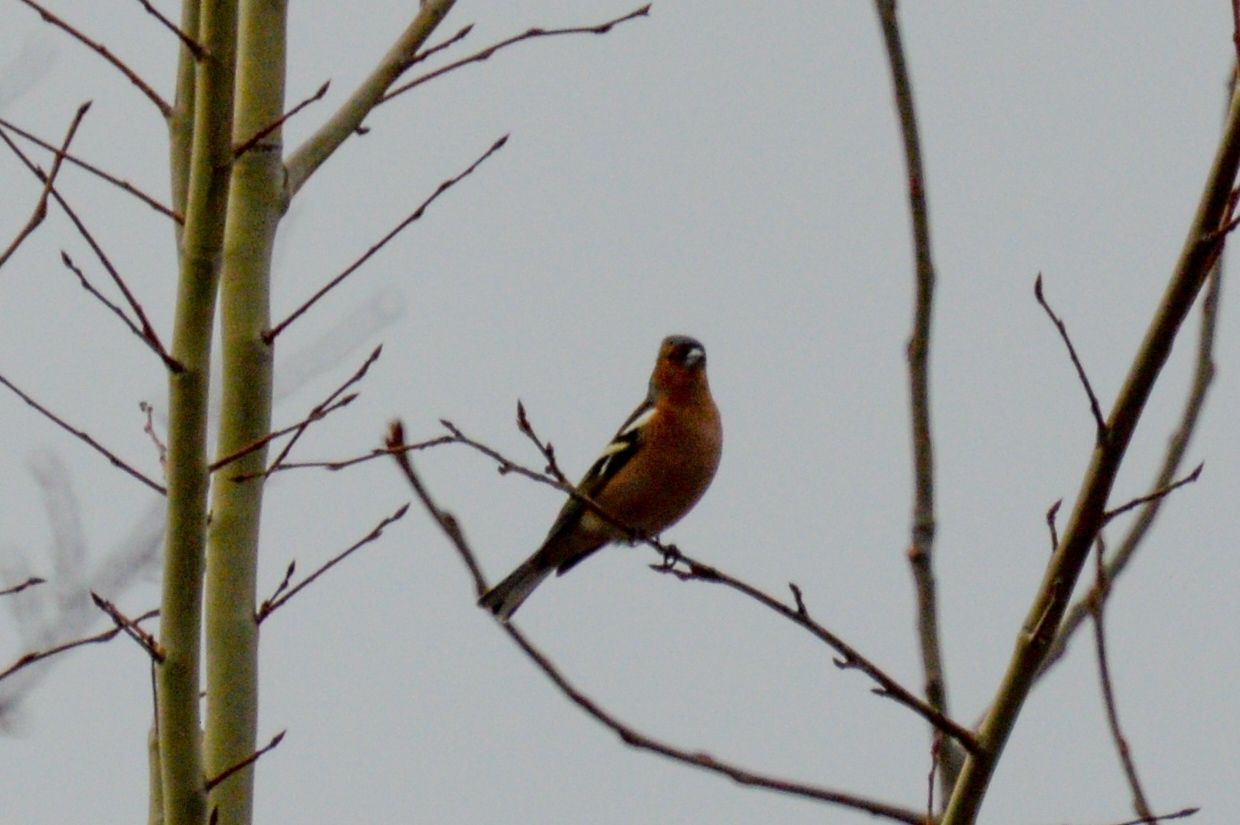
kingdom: Animalia
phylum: Chordata
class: Aves
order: Passeriformes
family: Fringillidae
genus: Fringilla
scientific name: Fringilla coelebs
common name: Common chaffinch
